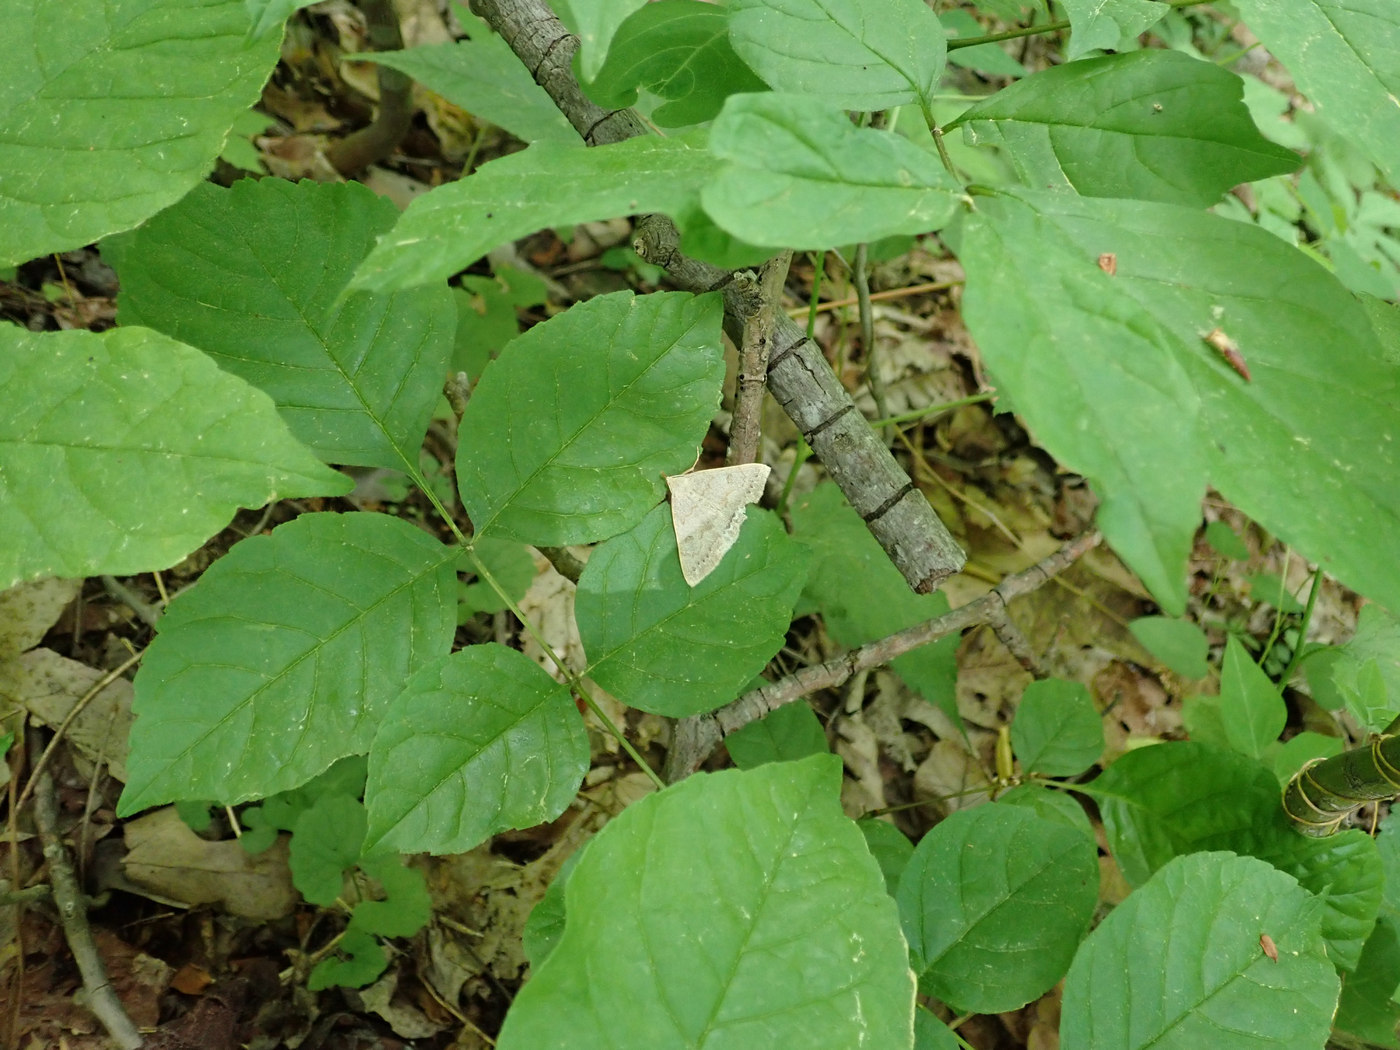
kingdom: Animalia
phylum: Arthropoda
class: Insecta
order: Lepidoptera
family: Erebidae
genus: Macrochilo
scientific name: Macrochilo morbidalis
